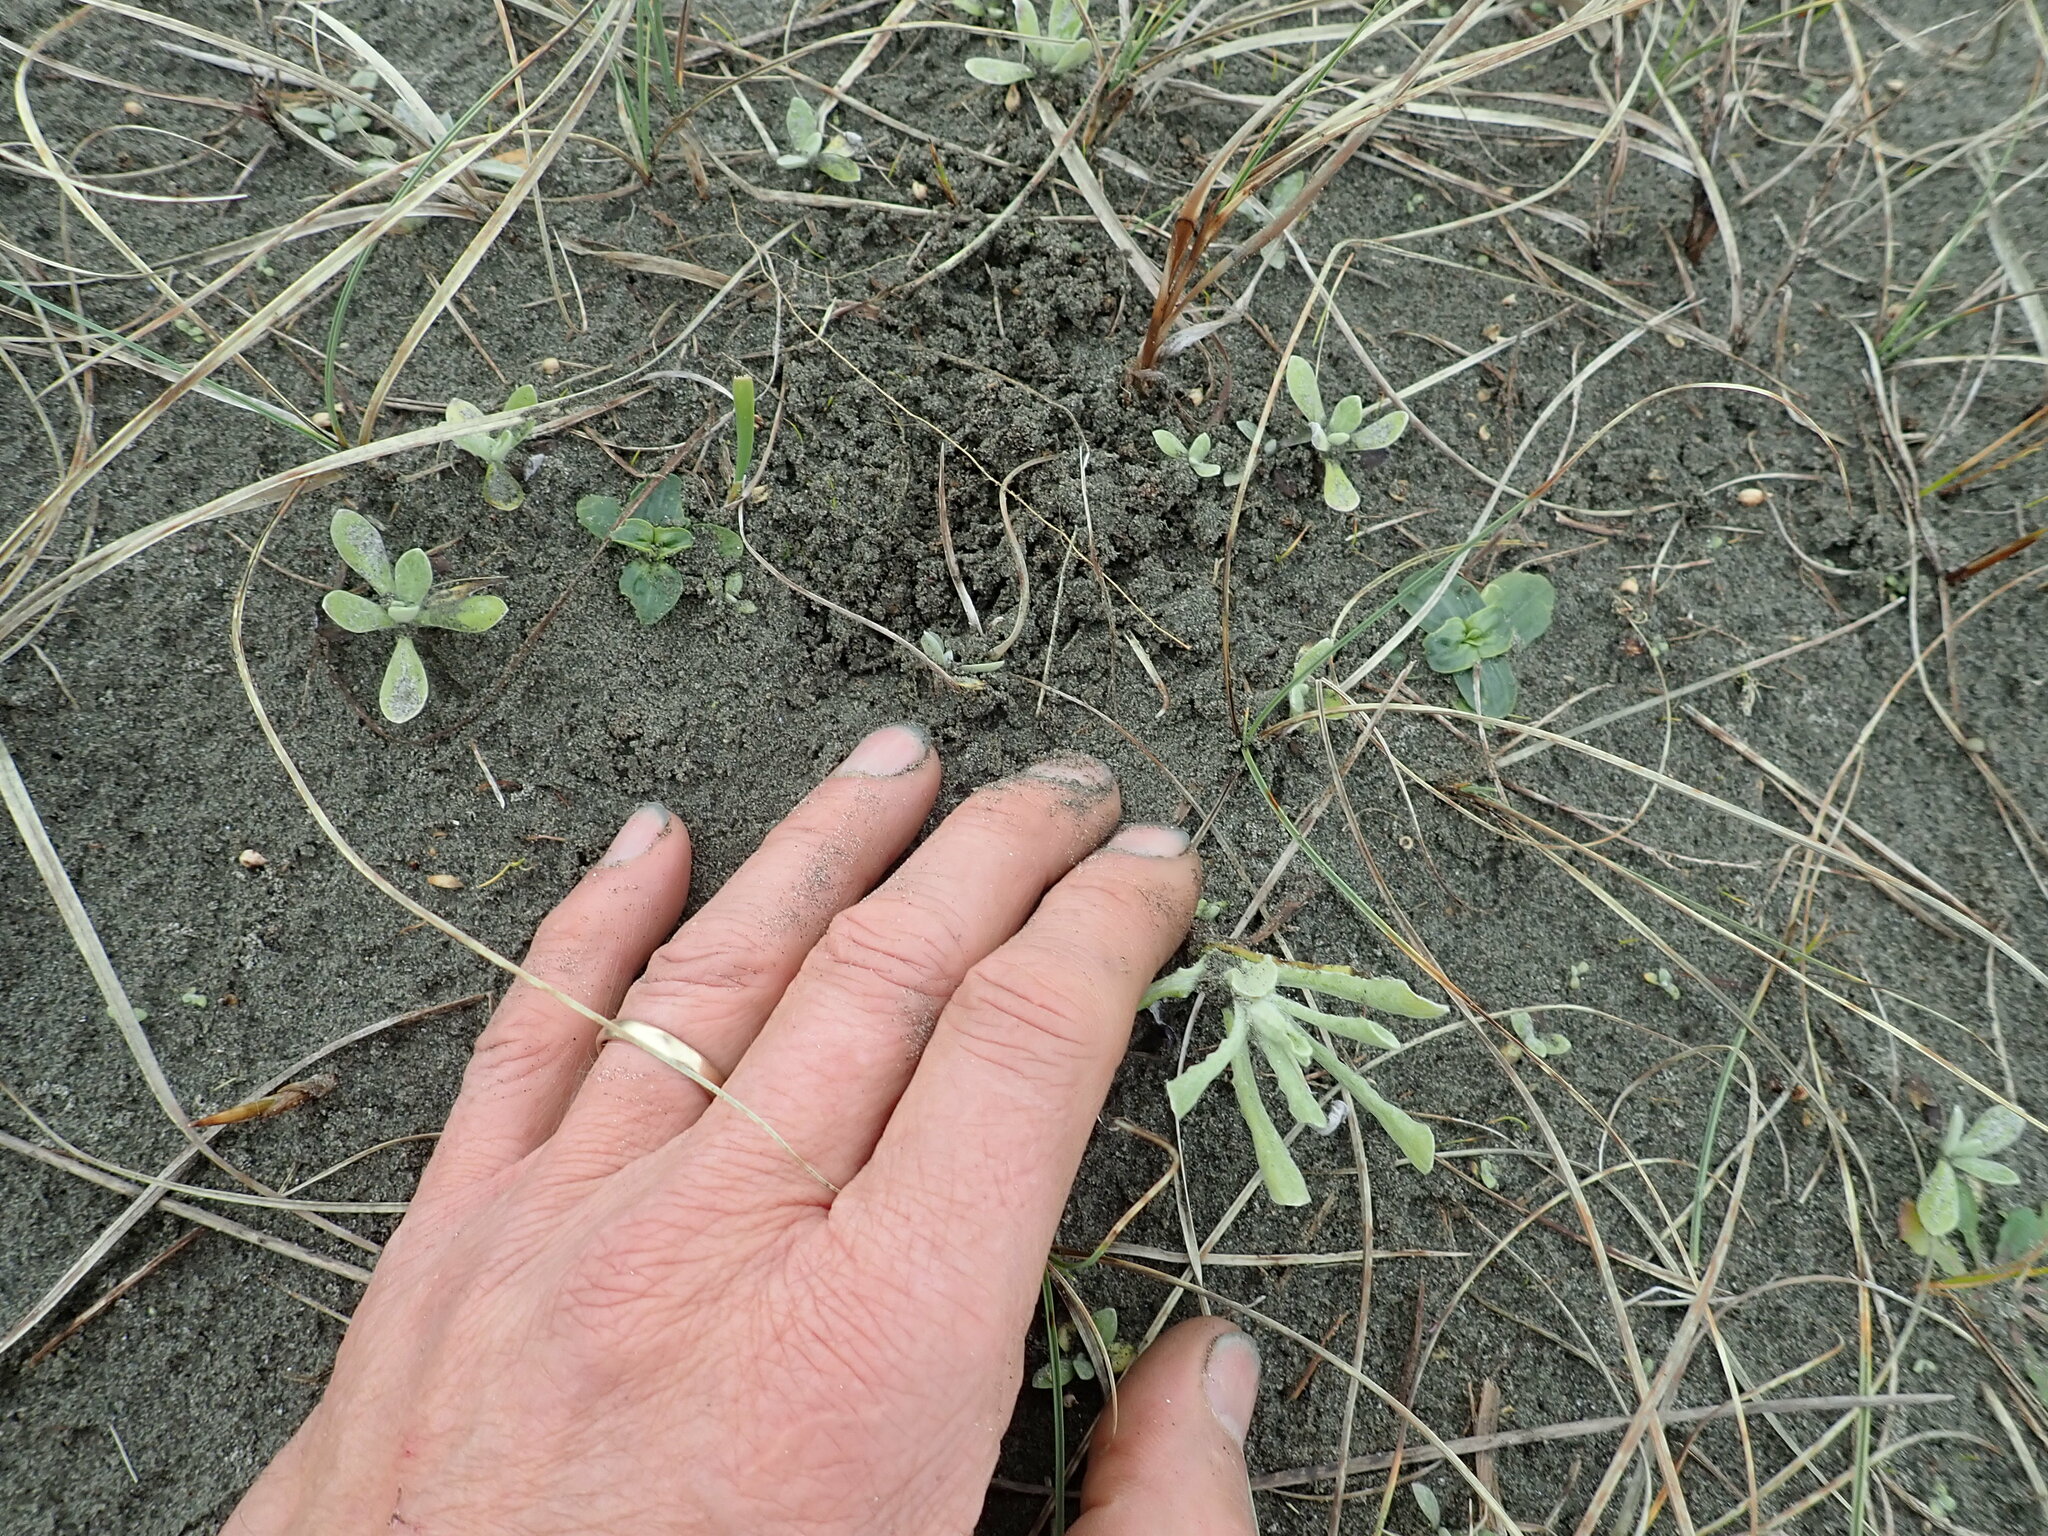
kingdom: Plantae
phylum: Tracheophyta
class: Magnoliopsida
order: Gentianales
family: Gentianaceae
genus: Centaurium
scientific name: Centaurium erythraea
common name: Common centaury
